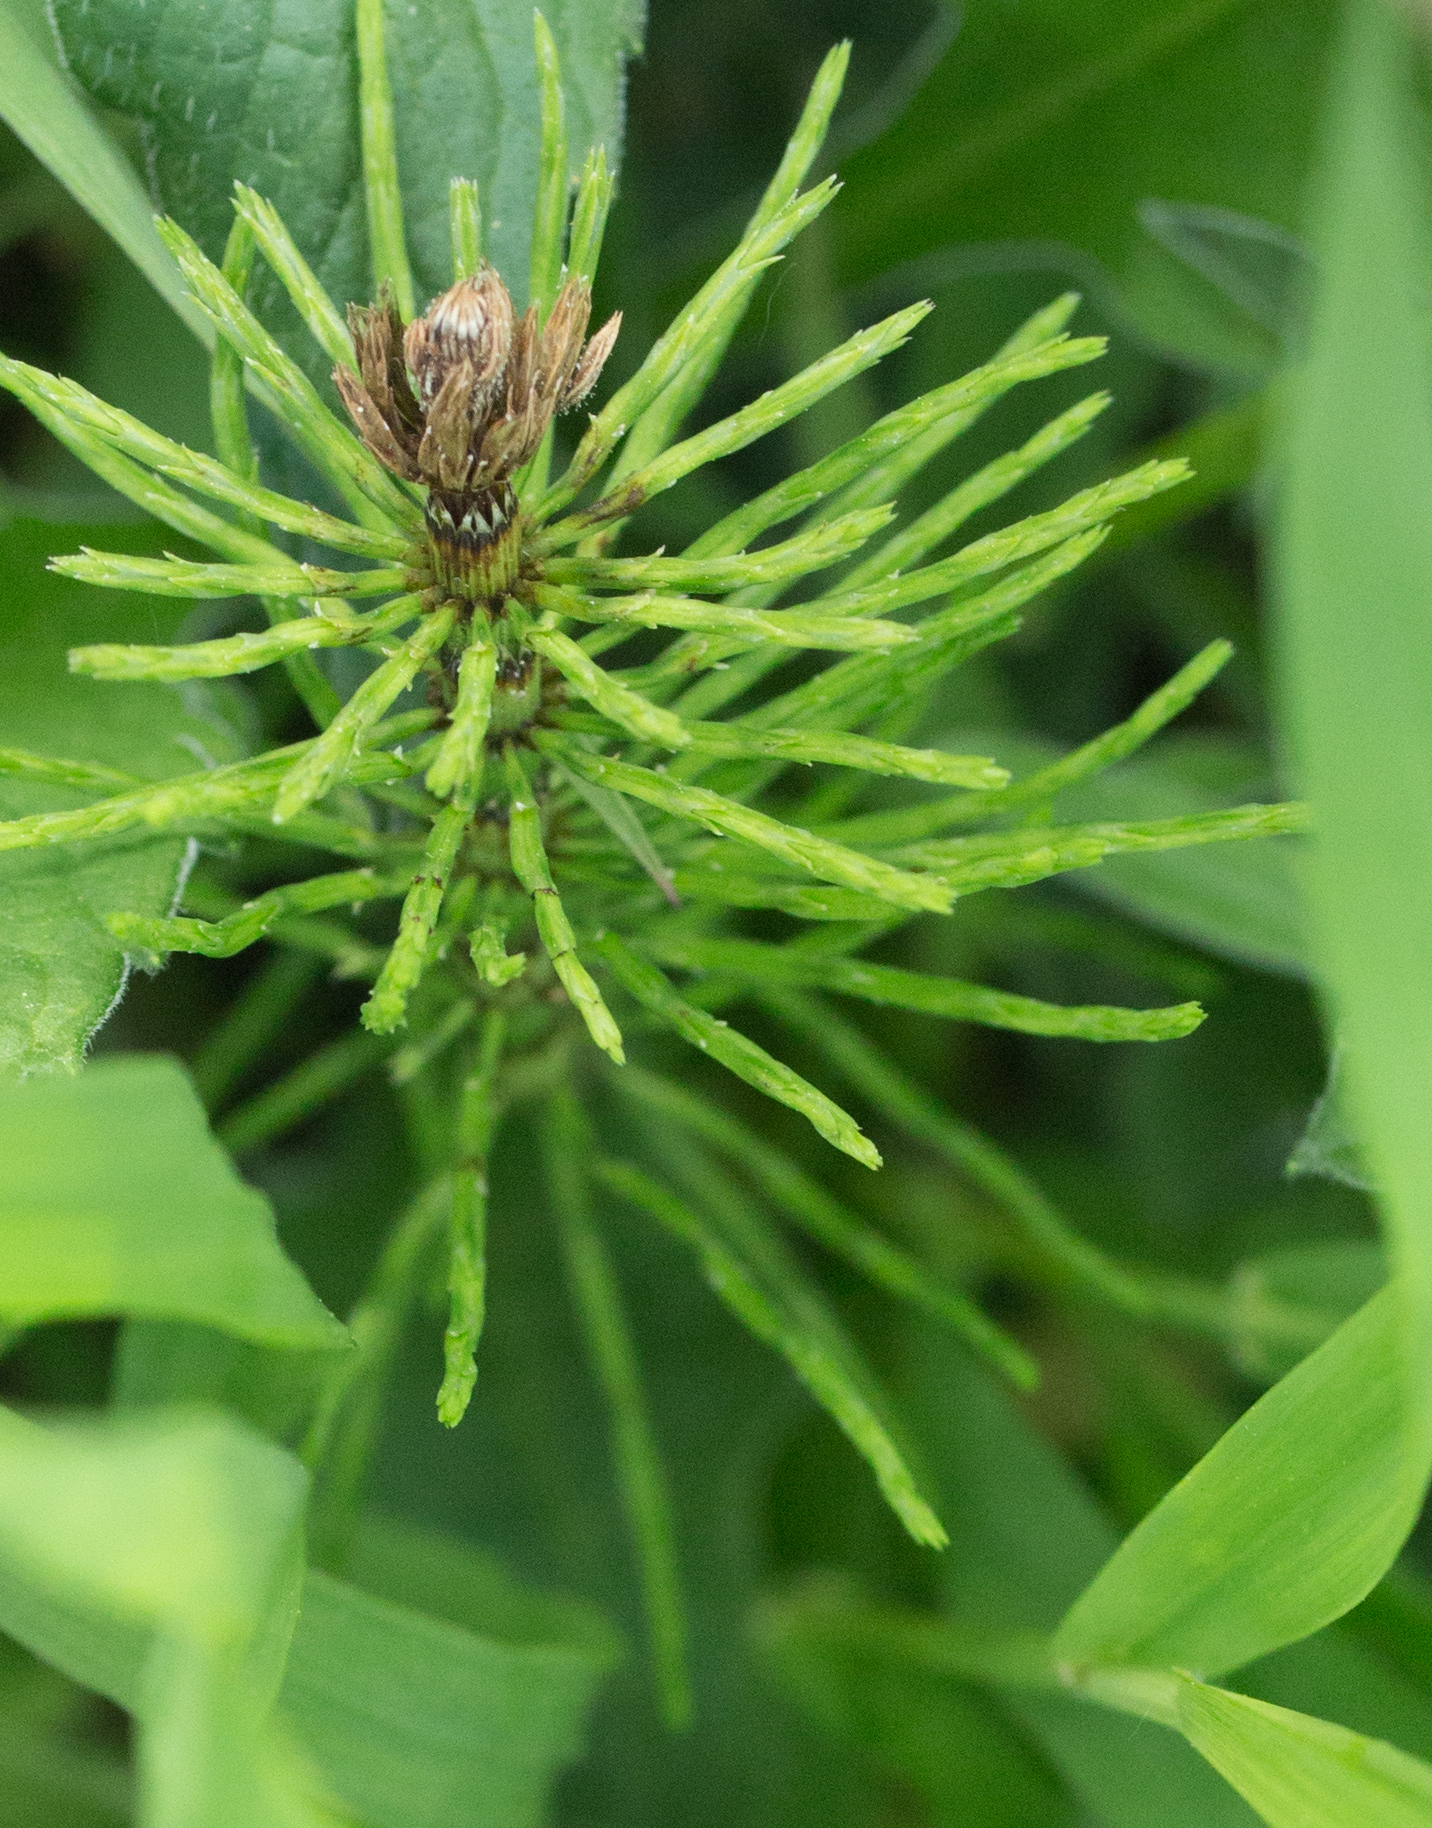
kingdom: Plantae
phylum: Tracheophyta
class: Polypodiopsida
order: Equisetales
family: Equisetaceae
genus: Equisetum
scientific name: Equisetum arvense
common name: Field horsetail
